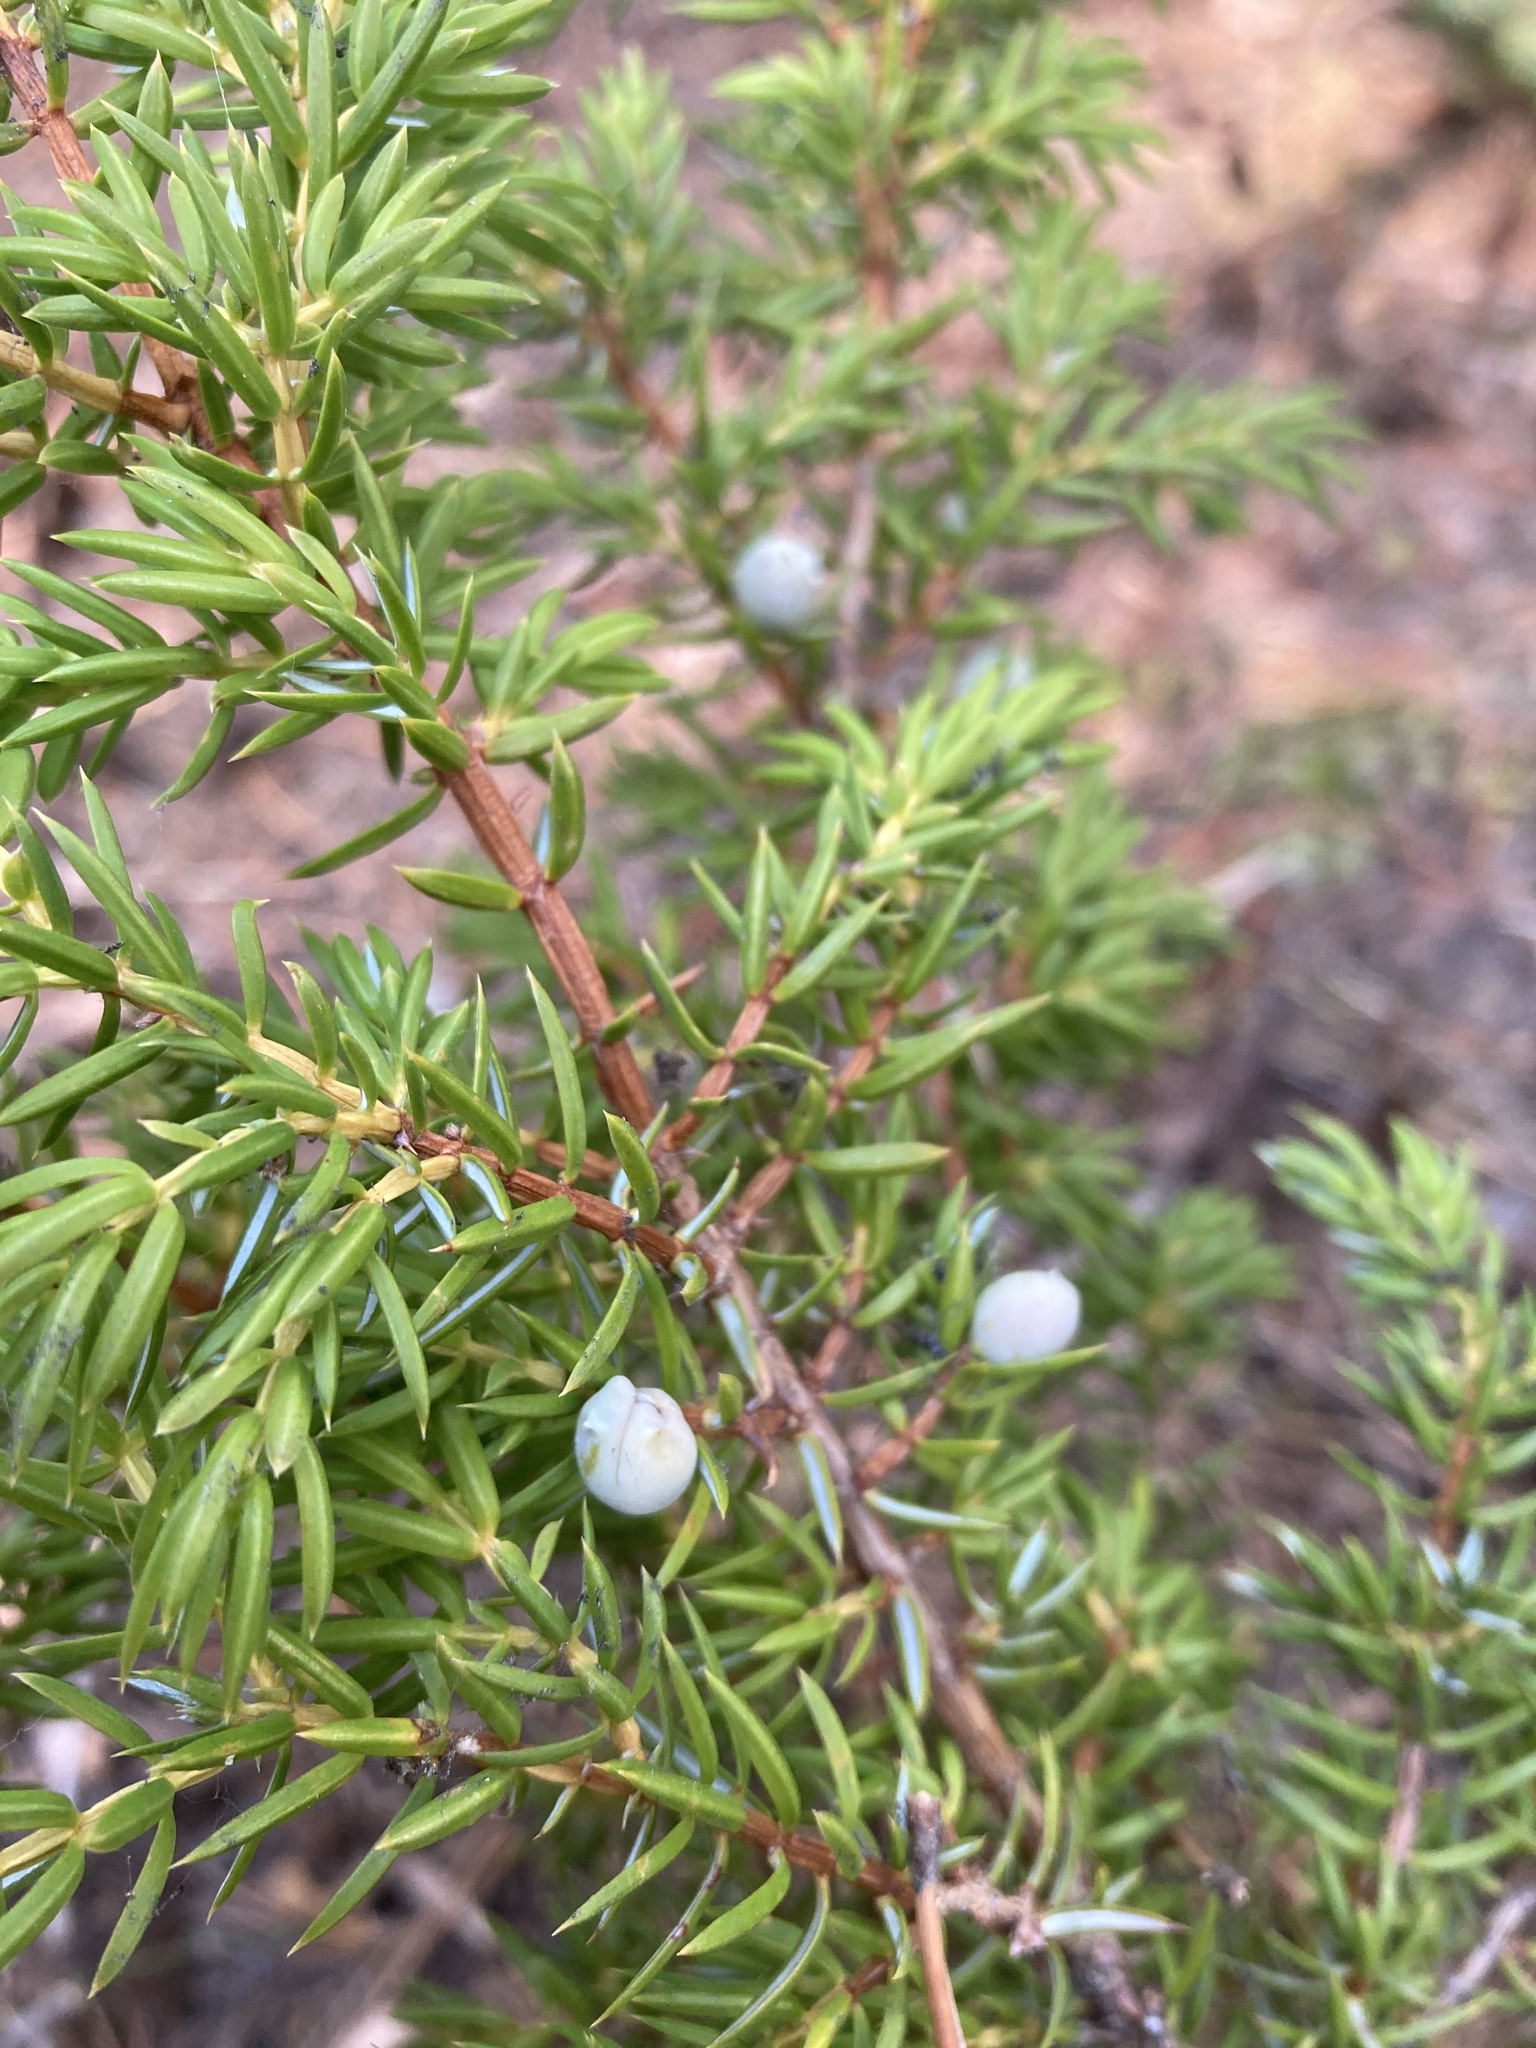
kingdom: Plantae
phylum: Tracheophyta
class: Pinopsida
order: Pinales
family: Cupressaceae
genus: Juniperus
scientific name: Juniperus communis
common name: Common juniper
